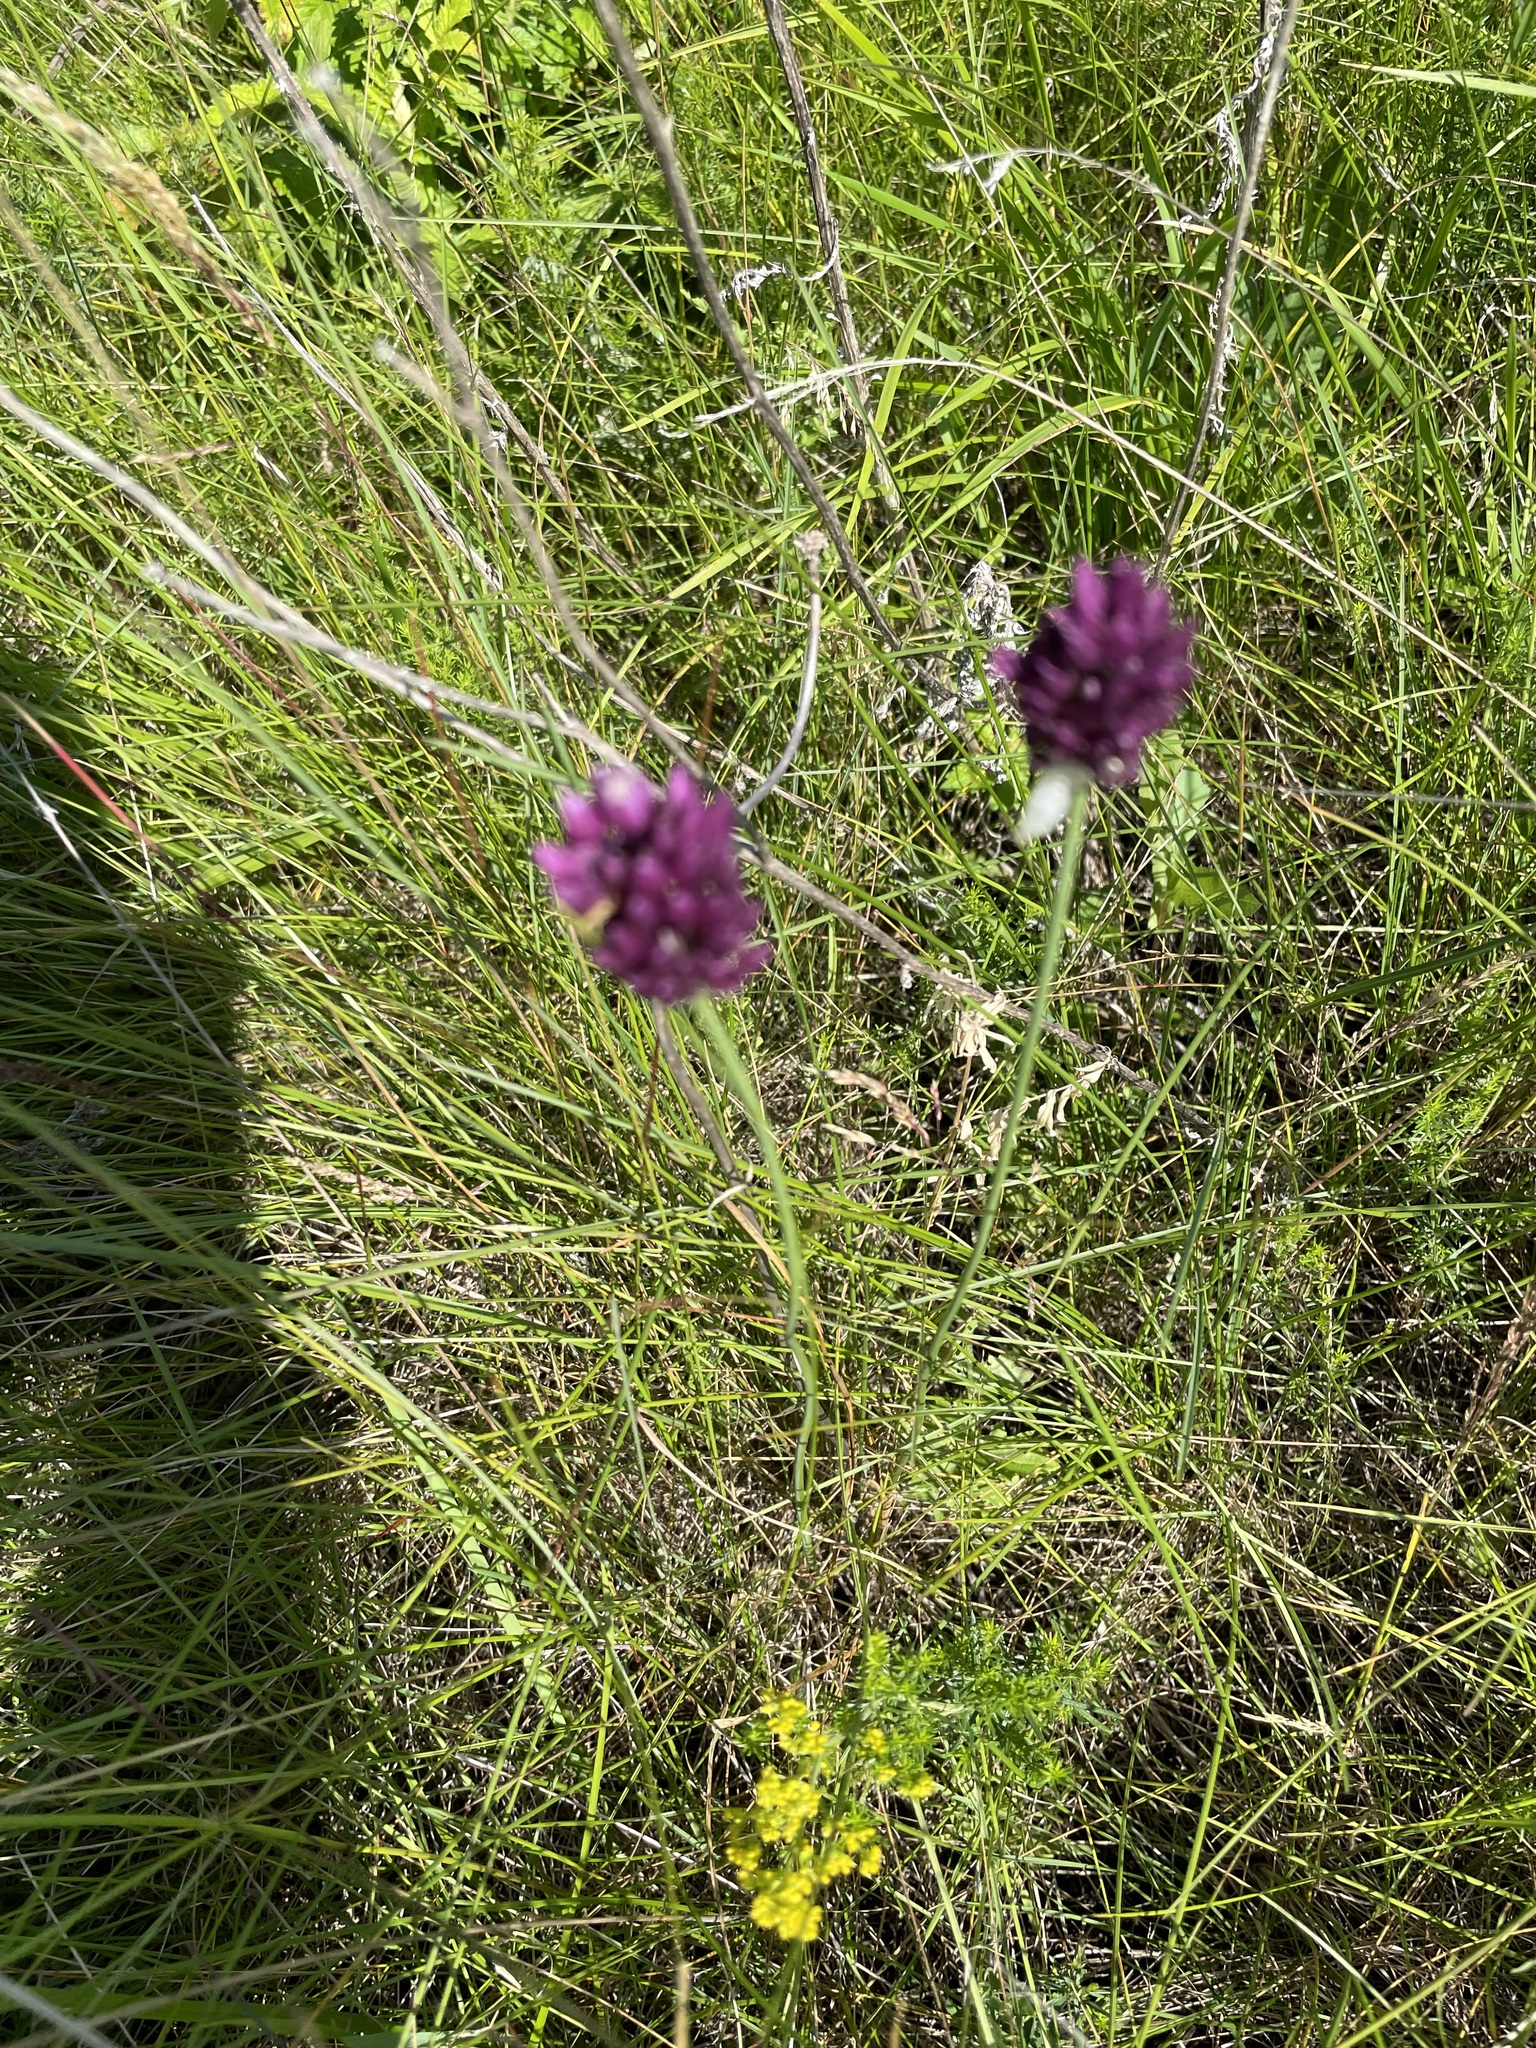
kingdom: Plantae
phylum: Tracheophyta
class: Liliopsida
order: Asparagales
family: Amaryllidaceae
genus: Allium
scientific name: Allium rotundum
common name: Sand leek
